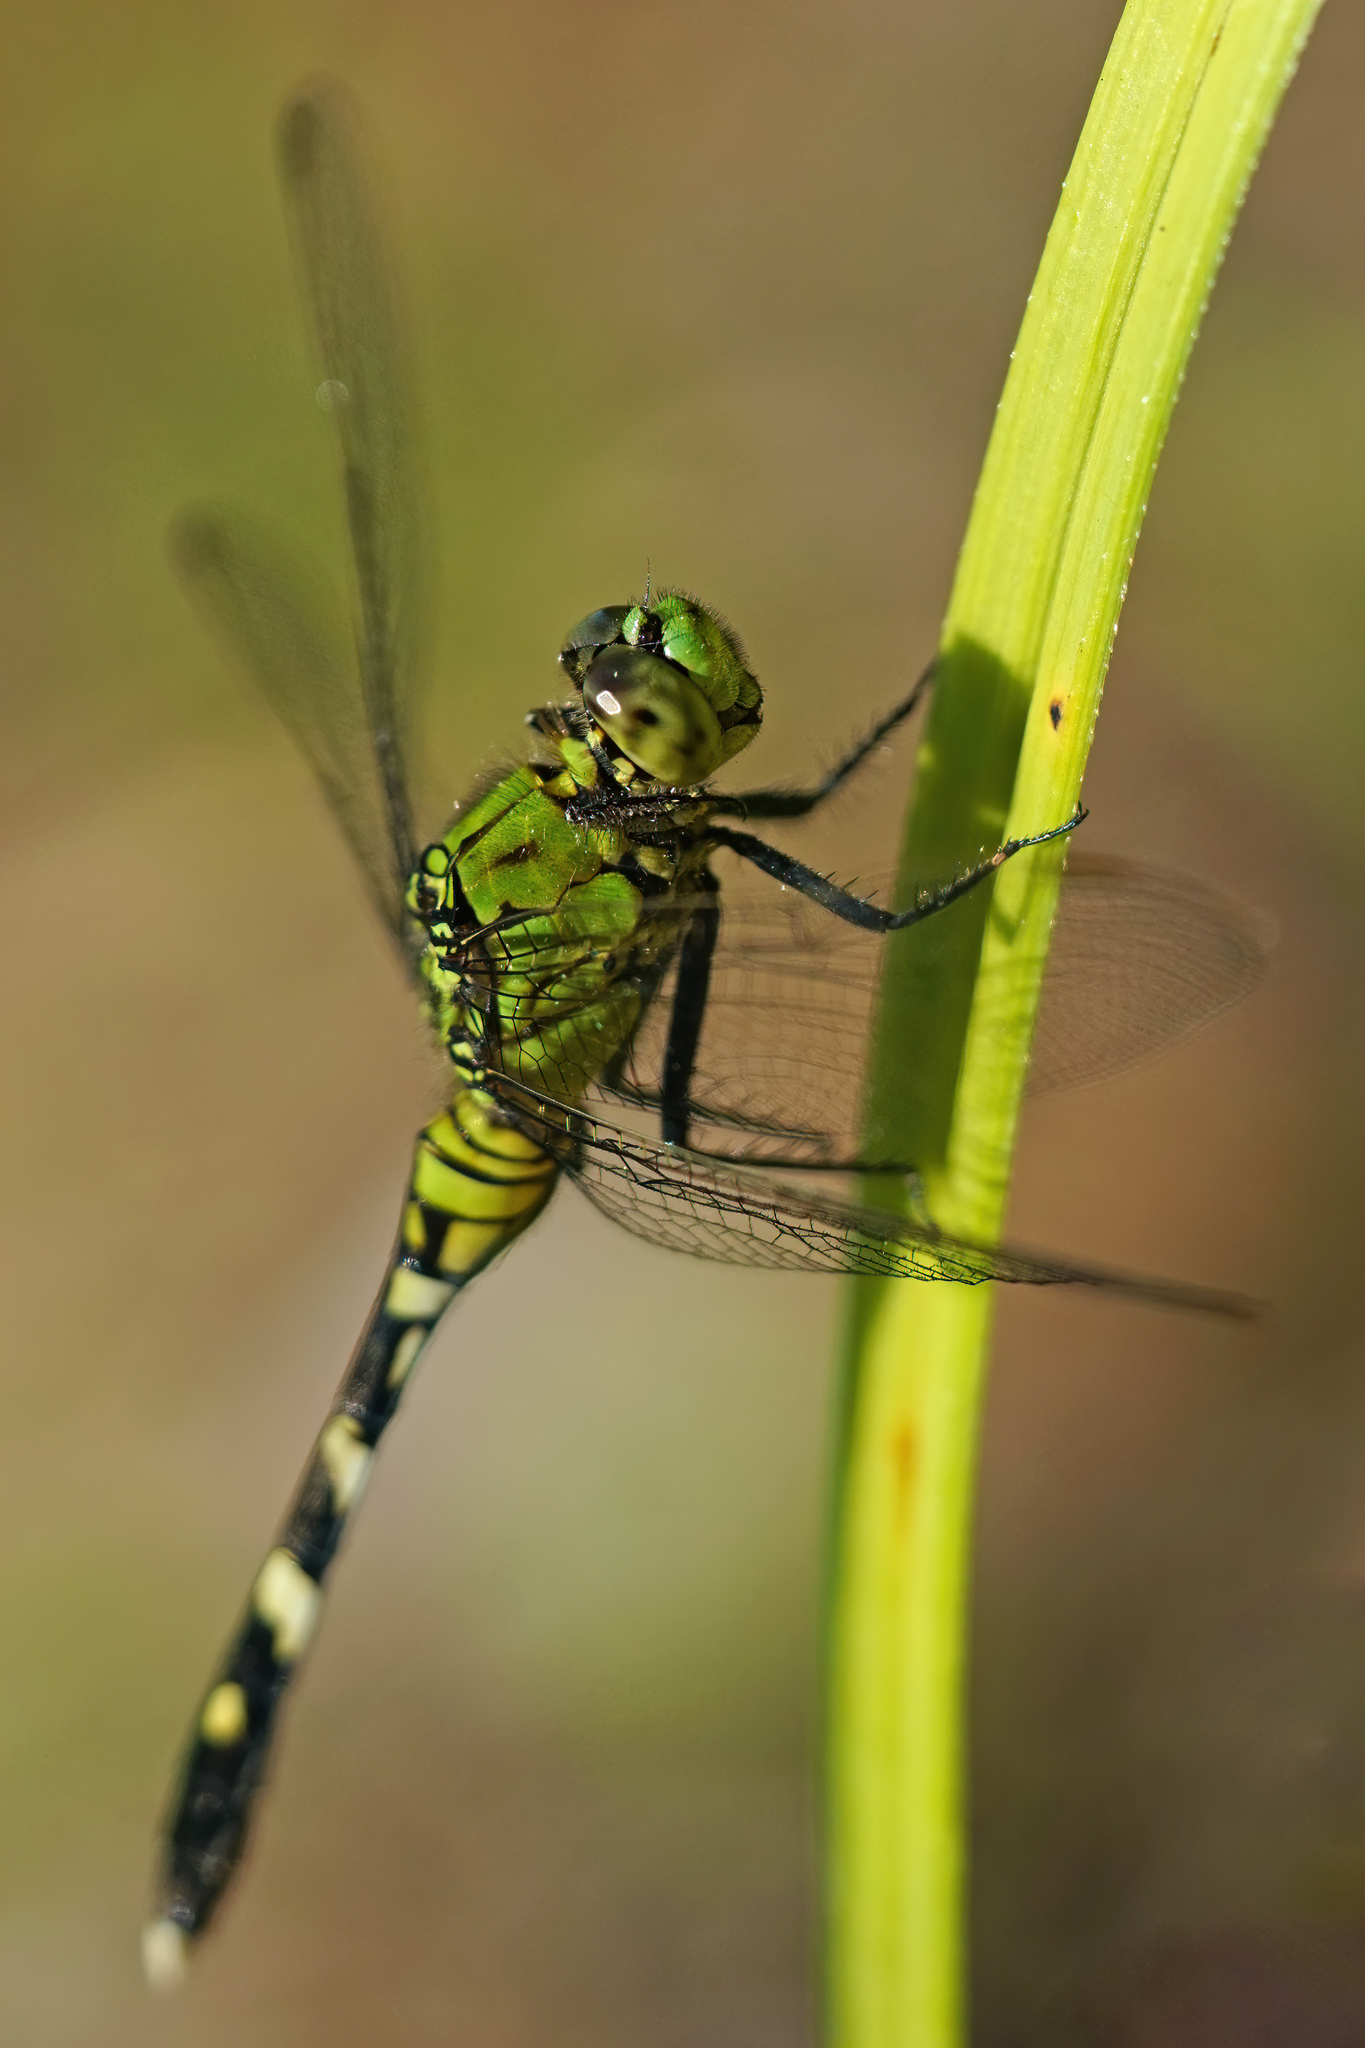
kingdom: Animalia
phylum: Arthropoda
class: Insecta
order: Odonata
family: Libellulidae
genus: Erythemis
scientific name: Erythemis simplicicollis
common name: Eastern pondhawk
